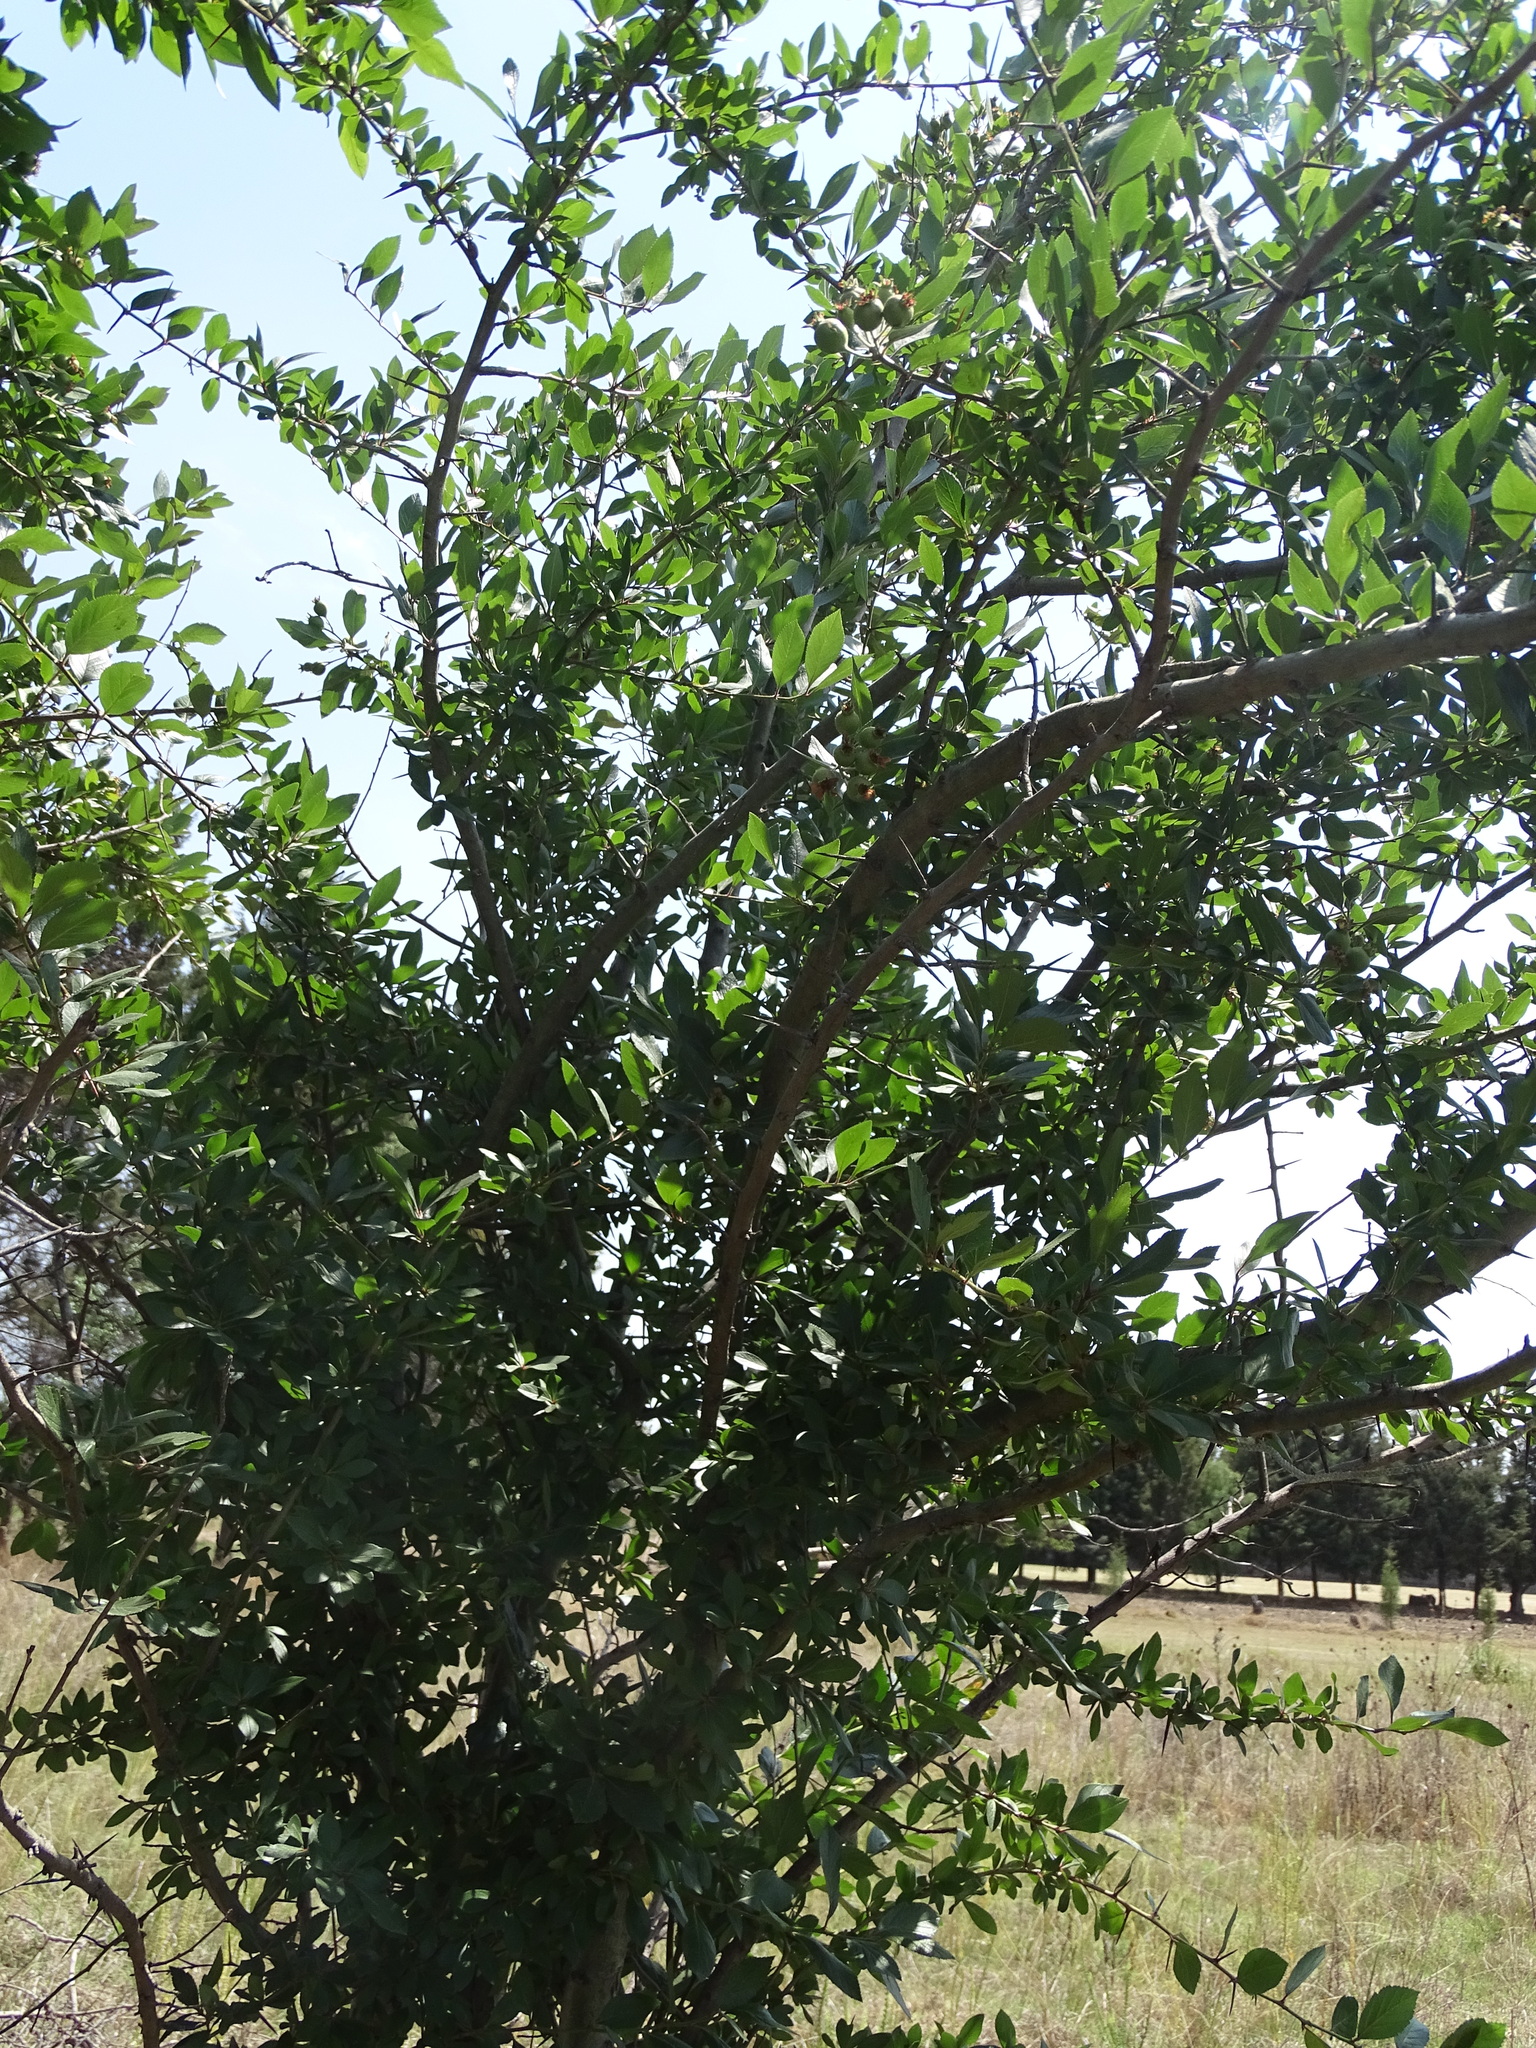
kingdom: Plantae
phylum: Tracheophyta
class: Magnoliopsida
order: Rosales
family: Rosaceae
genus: Crataegus
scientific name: Crataegus mexicana
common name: Mexican hawthorn
